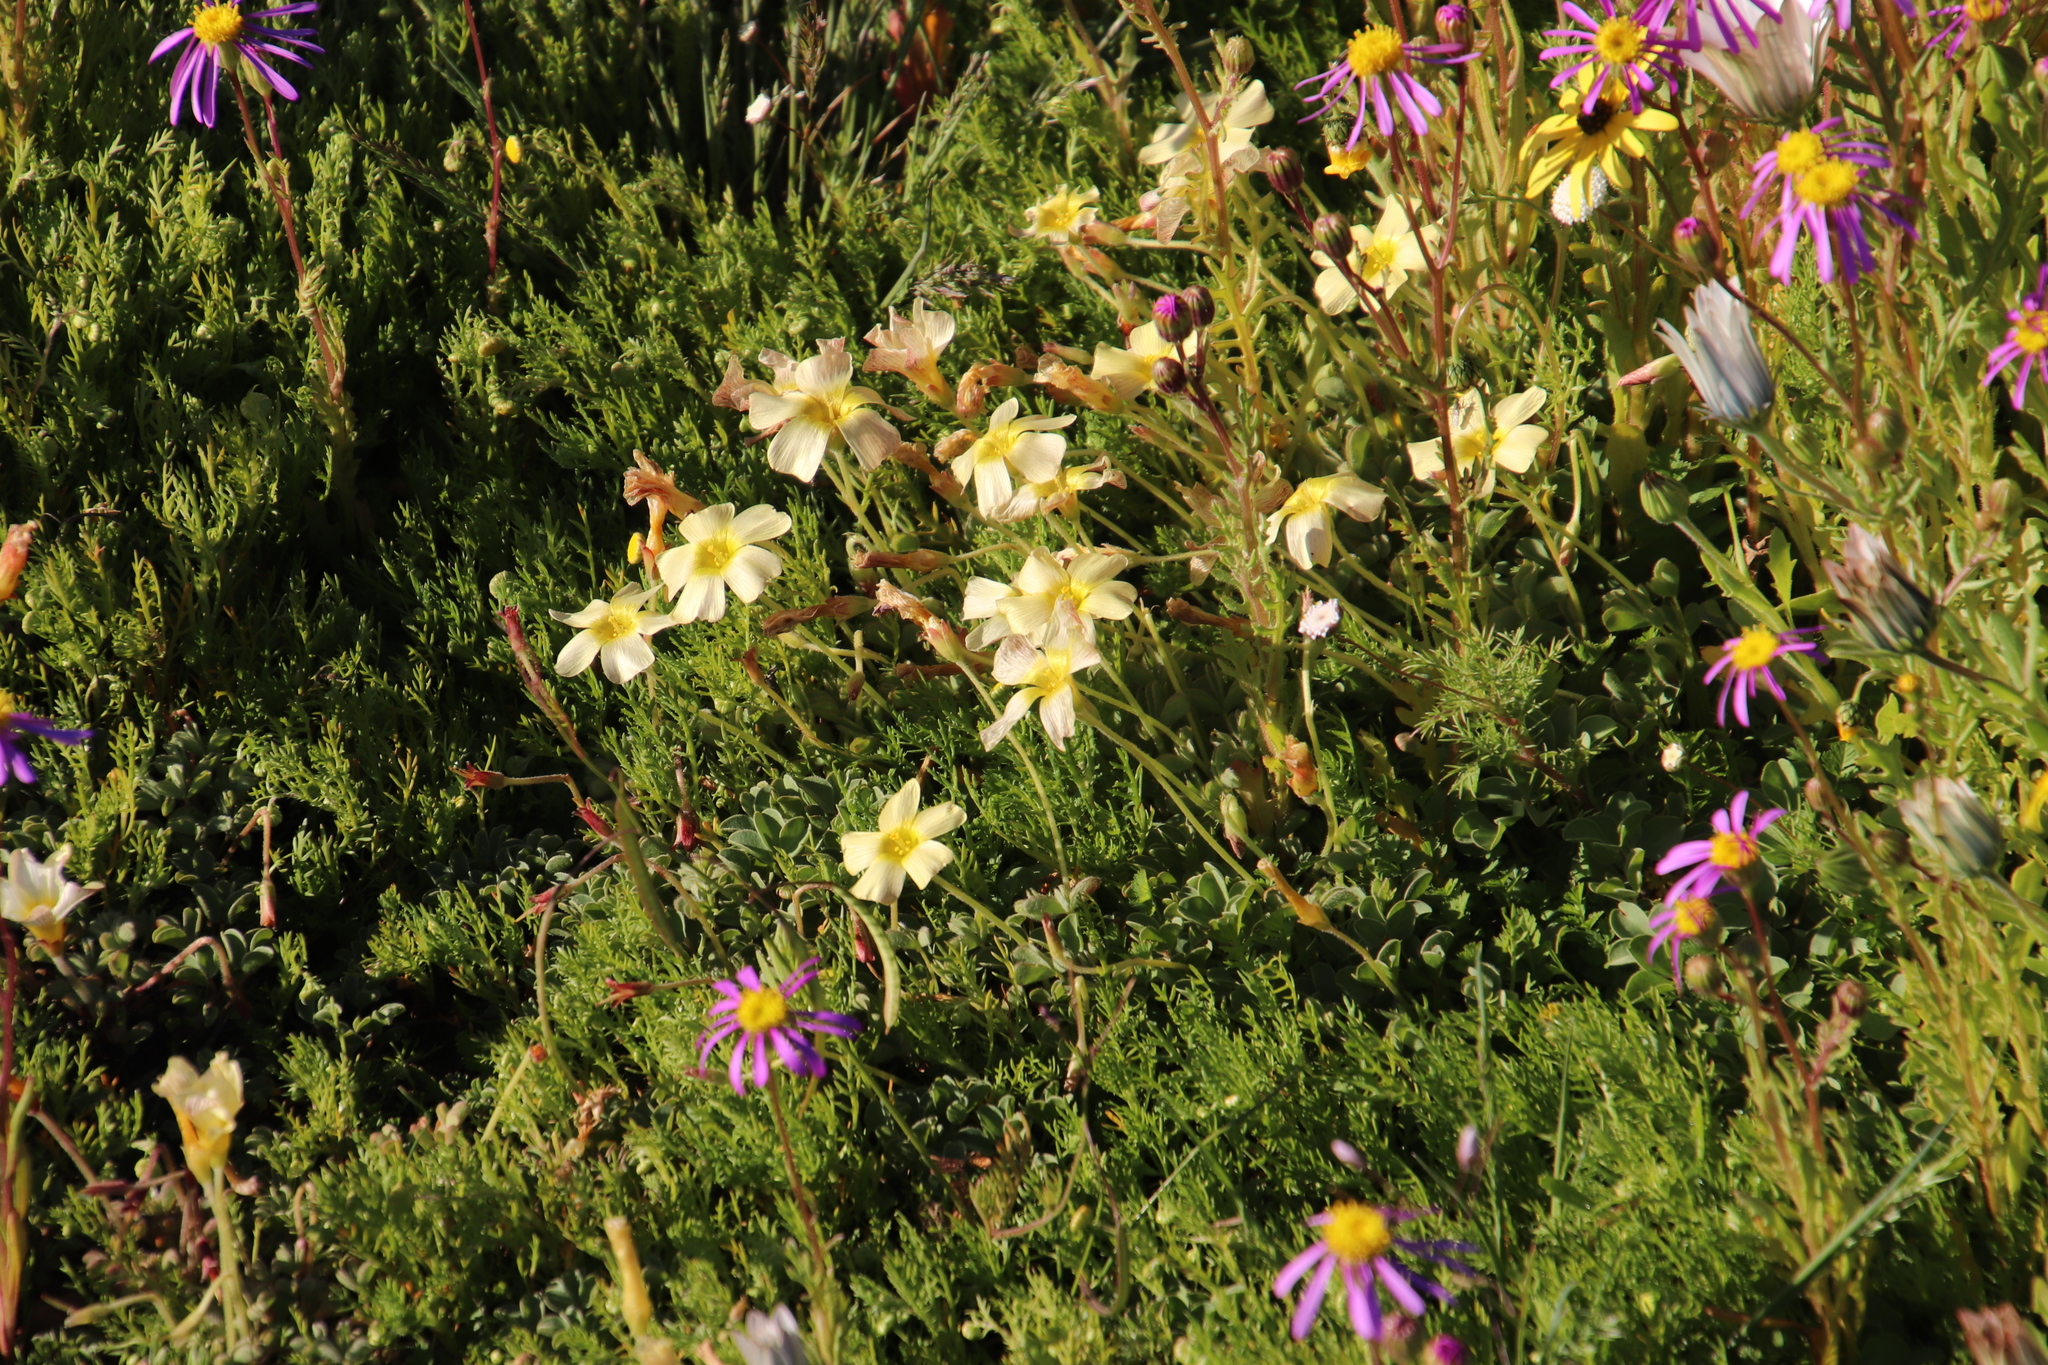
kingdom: Plantae
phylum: Tracheophyta
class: Magnoliopsida
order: Oxalidales
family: Oxalidaceae
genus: Oxalis
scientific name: Oxalis obtusa
